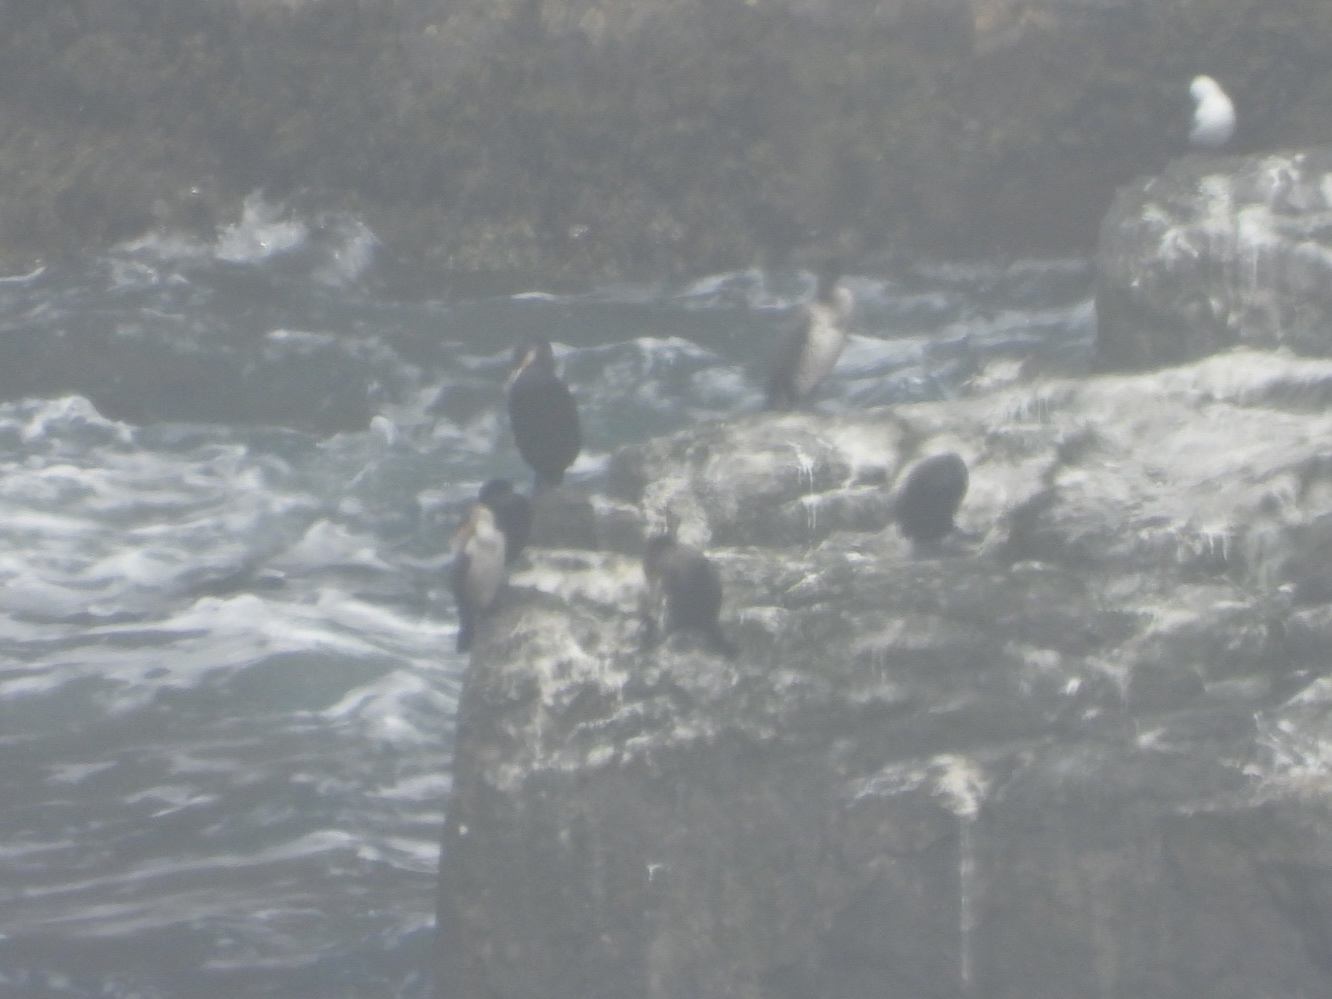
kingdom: Animalia
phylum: Chordata
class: Aves
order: Suliformes
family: Phalacrocoracidae
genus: Phalacrocorax
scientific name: Phalacrocorax carbo
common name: Great cormorant
